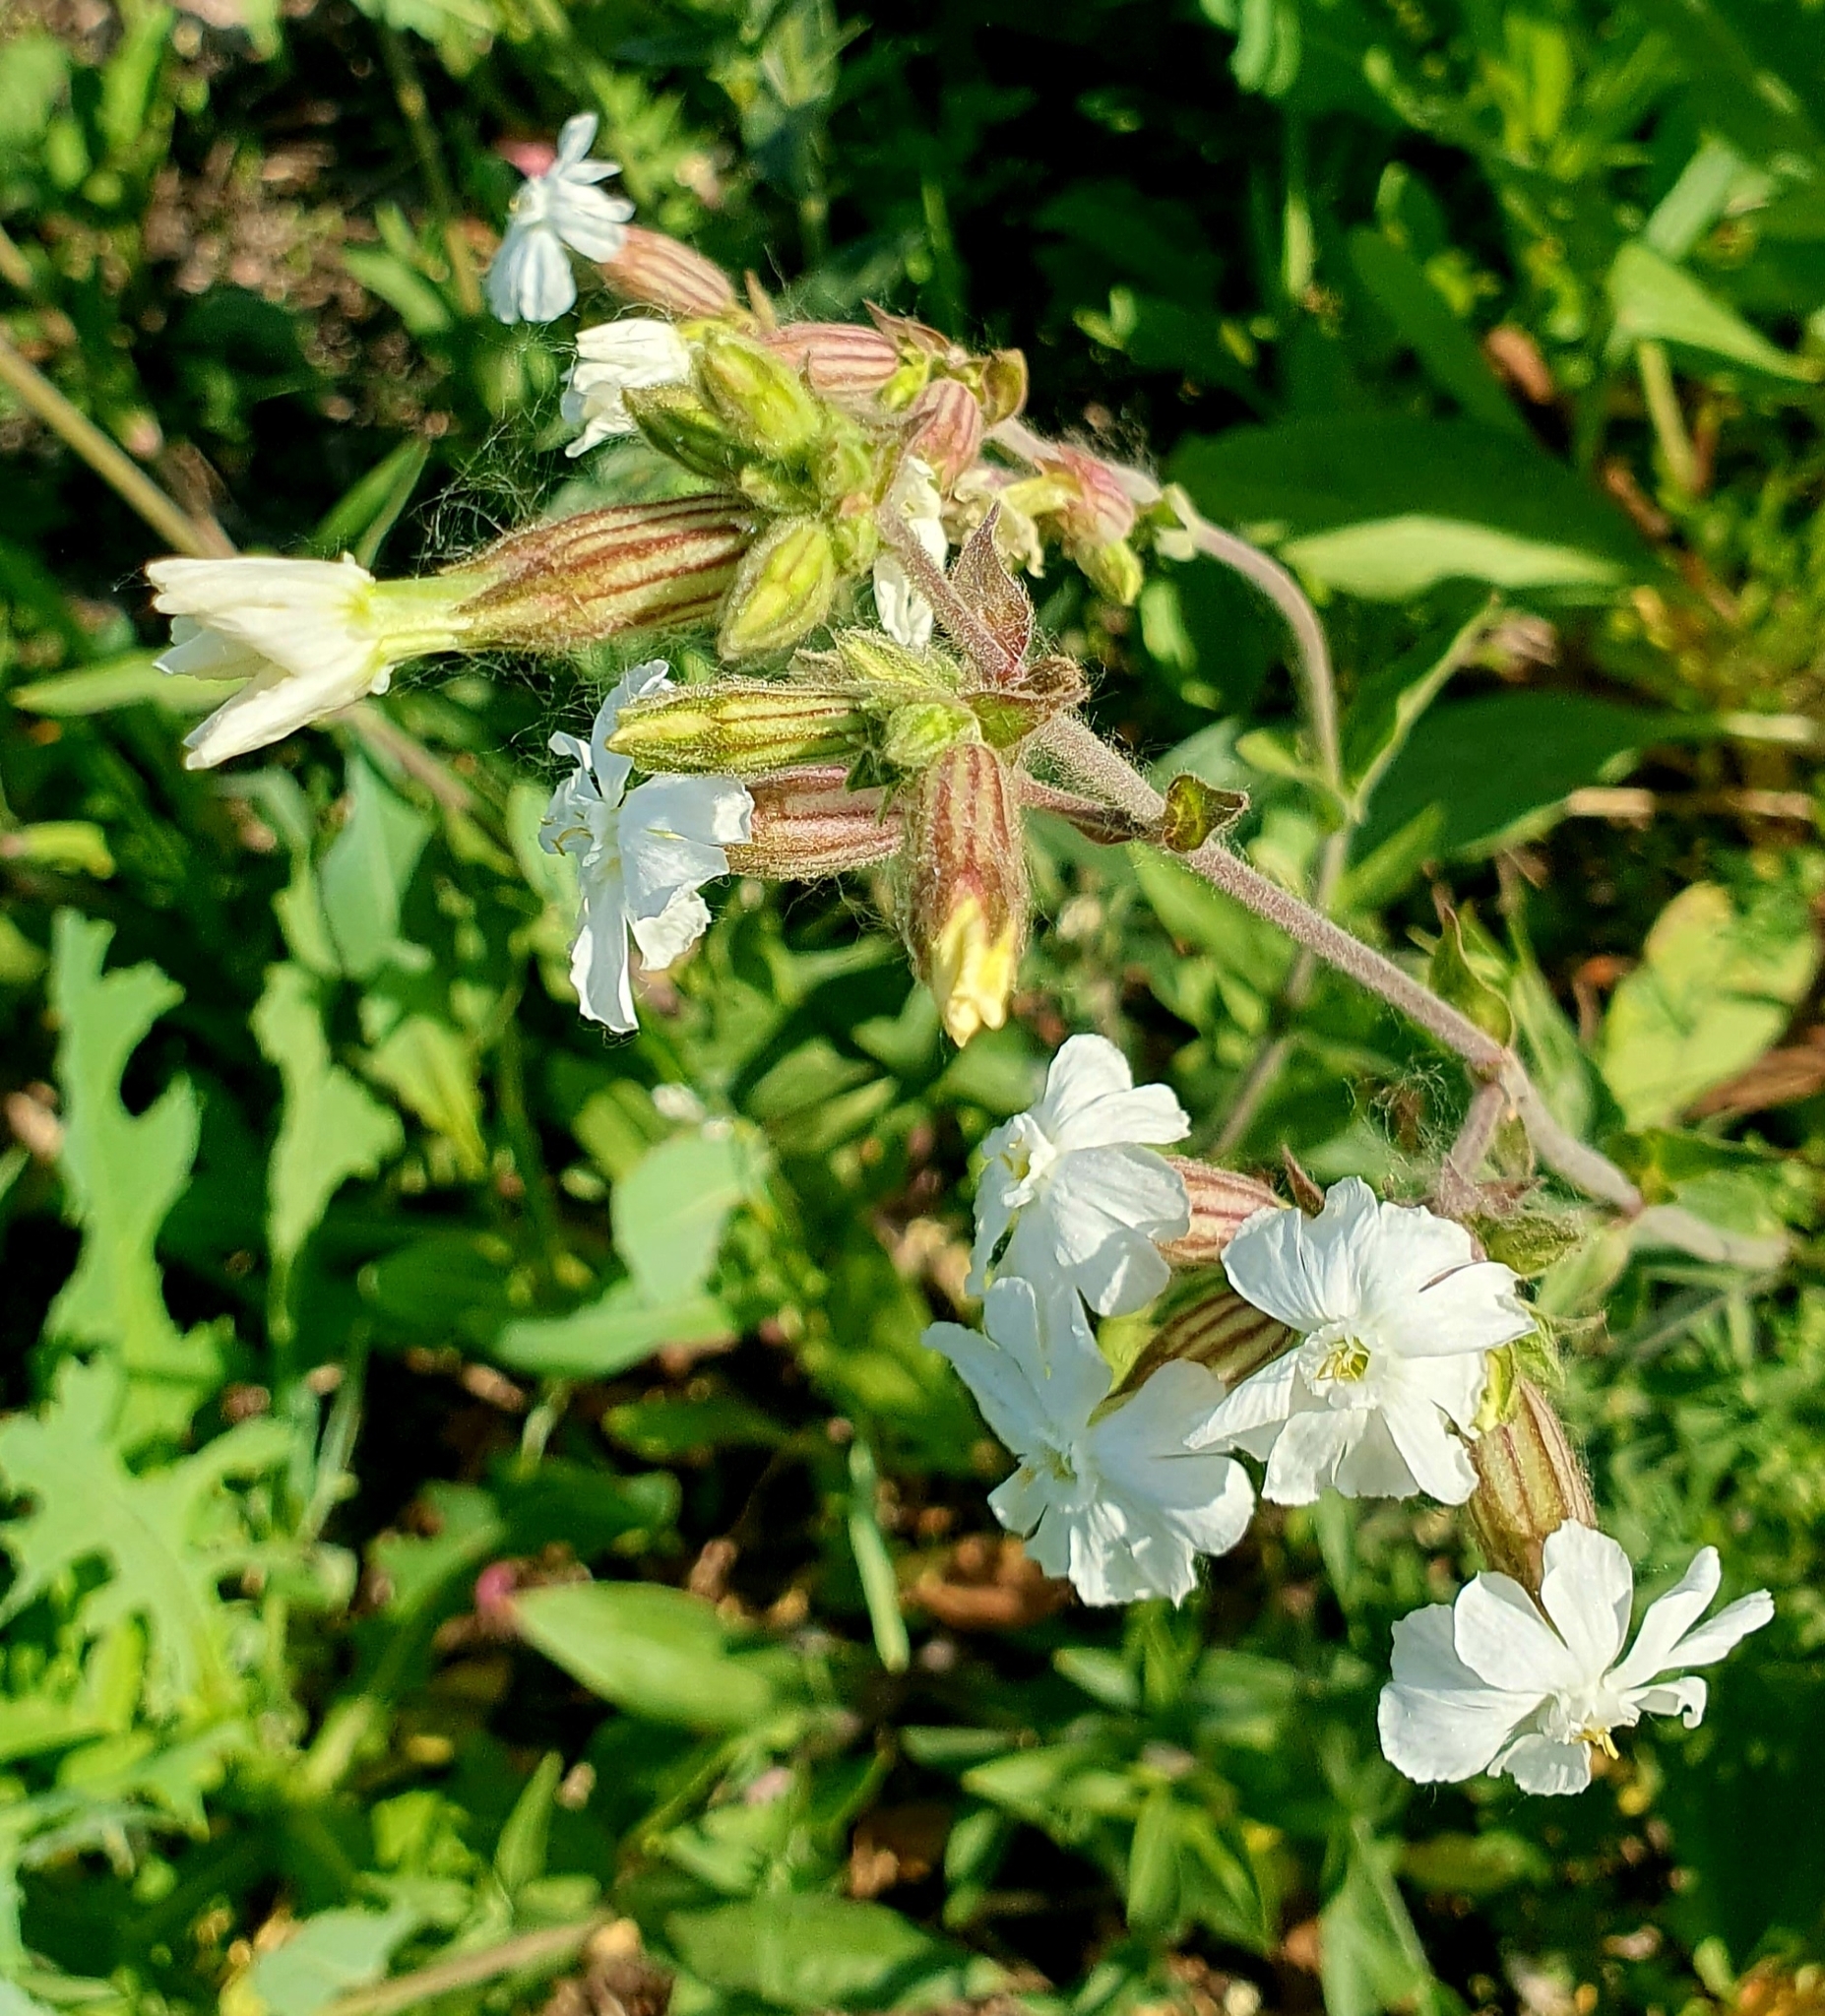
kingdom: Plantae
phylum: Tracheophyta
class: Magnoliopsida
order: Caryophyllales
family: Caryophyllaceae
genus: Silene
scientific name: Silene latifolia
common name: White campion
